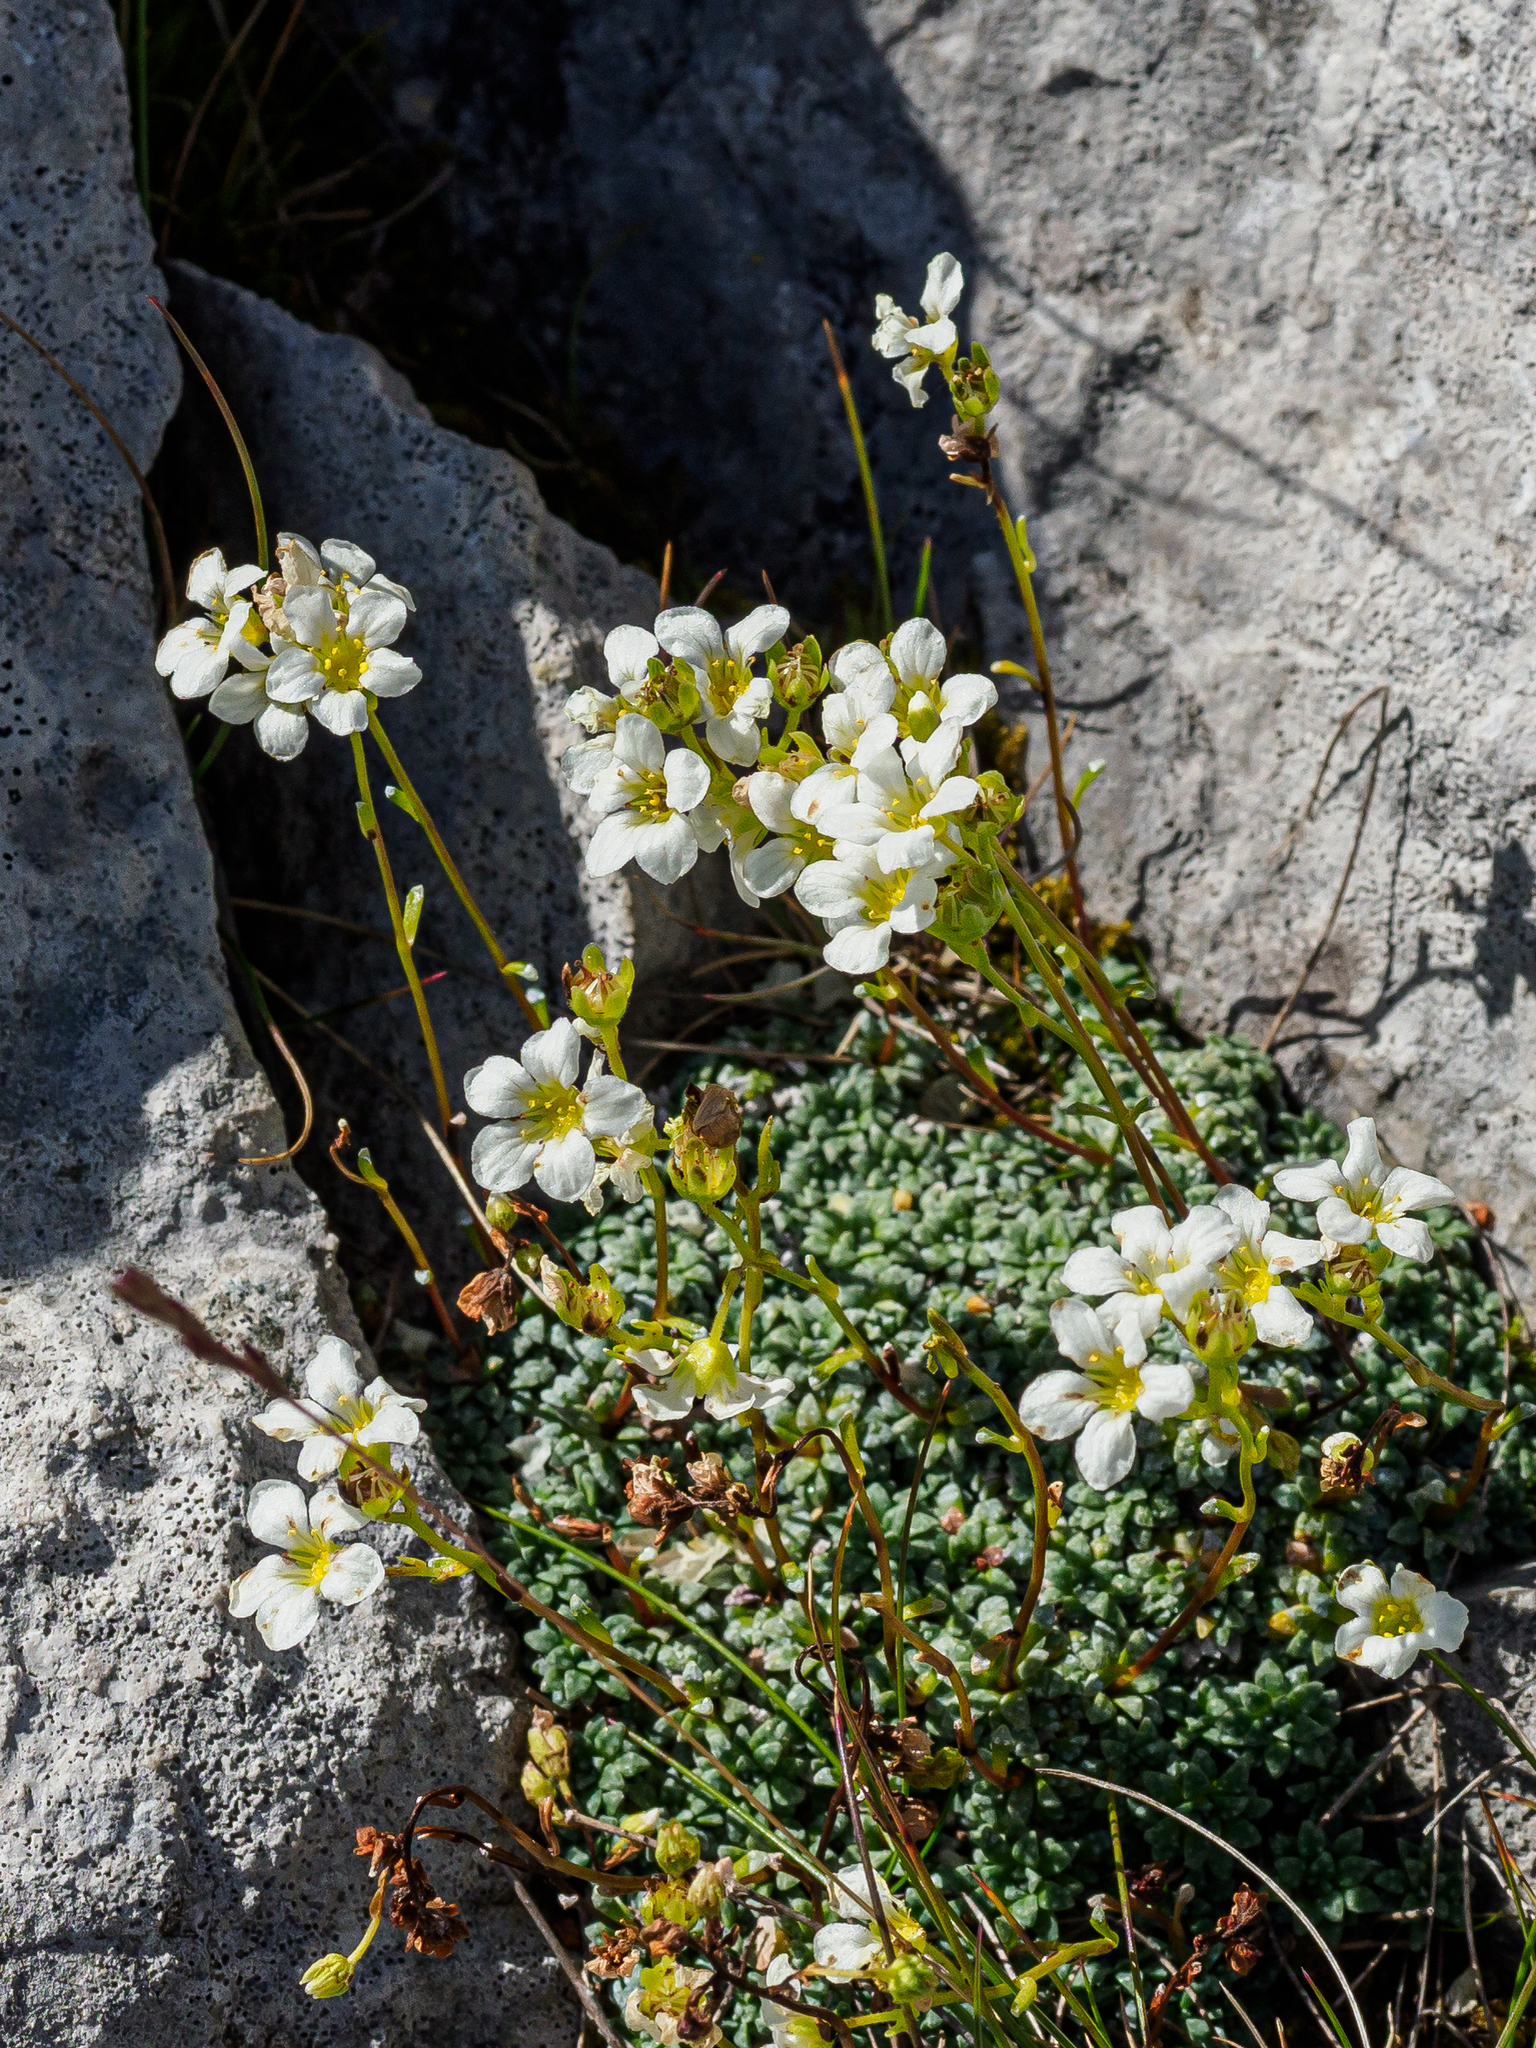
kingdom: Plantae
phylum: Tracheophyta
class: Magnoliopsida
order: Saxifragales
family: Saxifragaceae
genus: Saxifraga
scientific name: Saxifraga caesia
